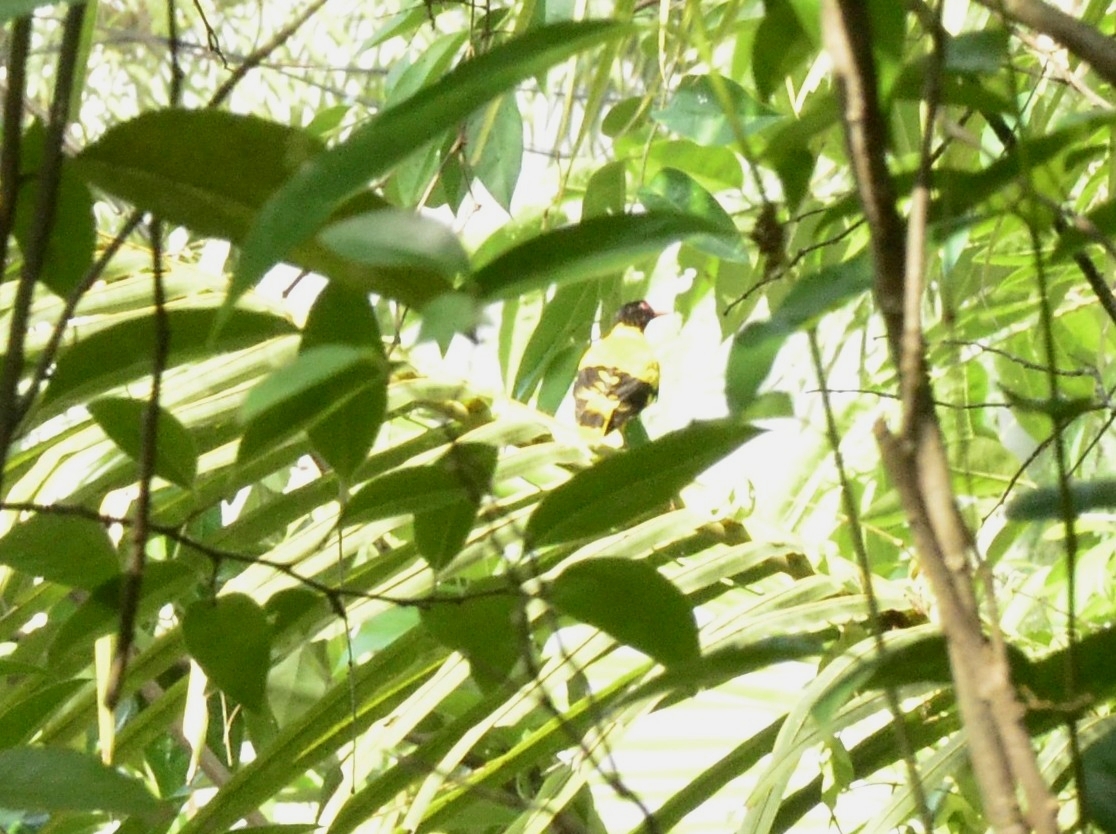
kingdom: Animalia
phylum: Chordata
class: Aves
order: Passeriformes
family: Oriolidae
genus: Oriolus
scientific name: Oriolus xanthornus
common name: Black-hooded oriole
